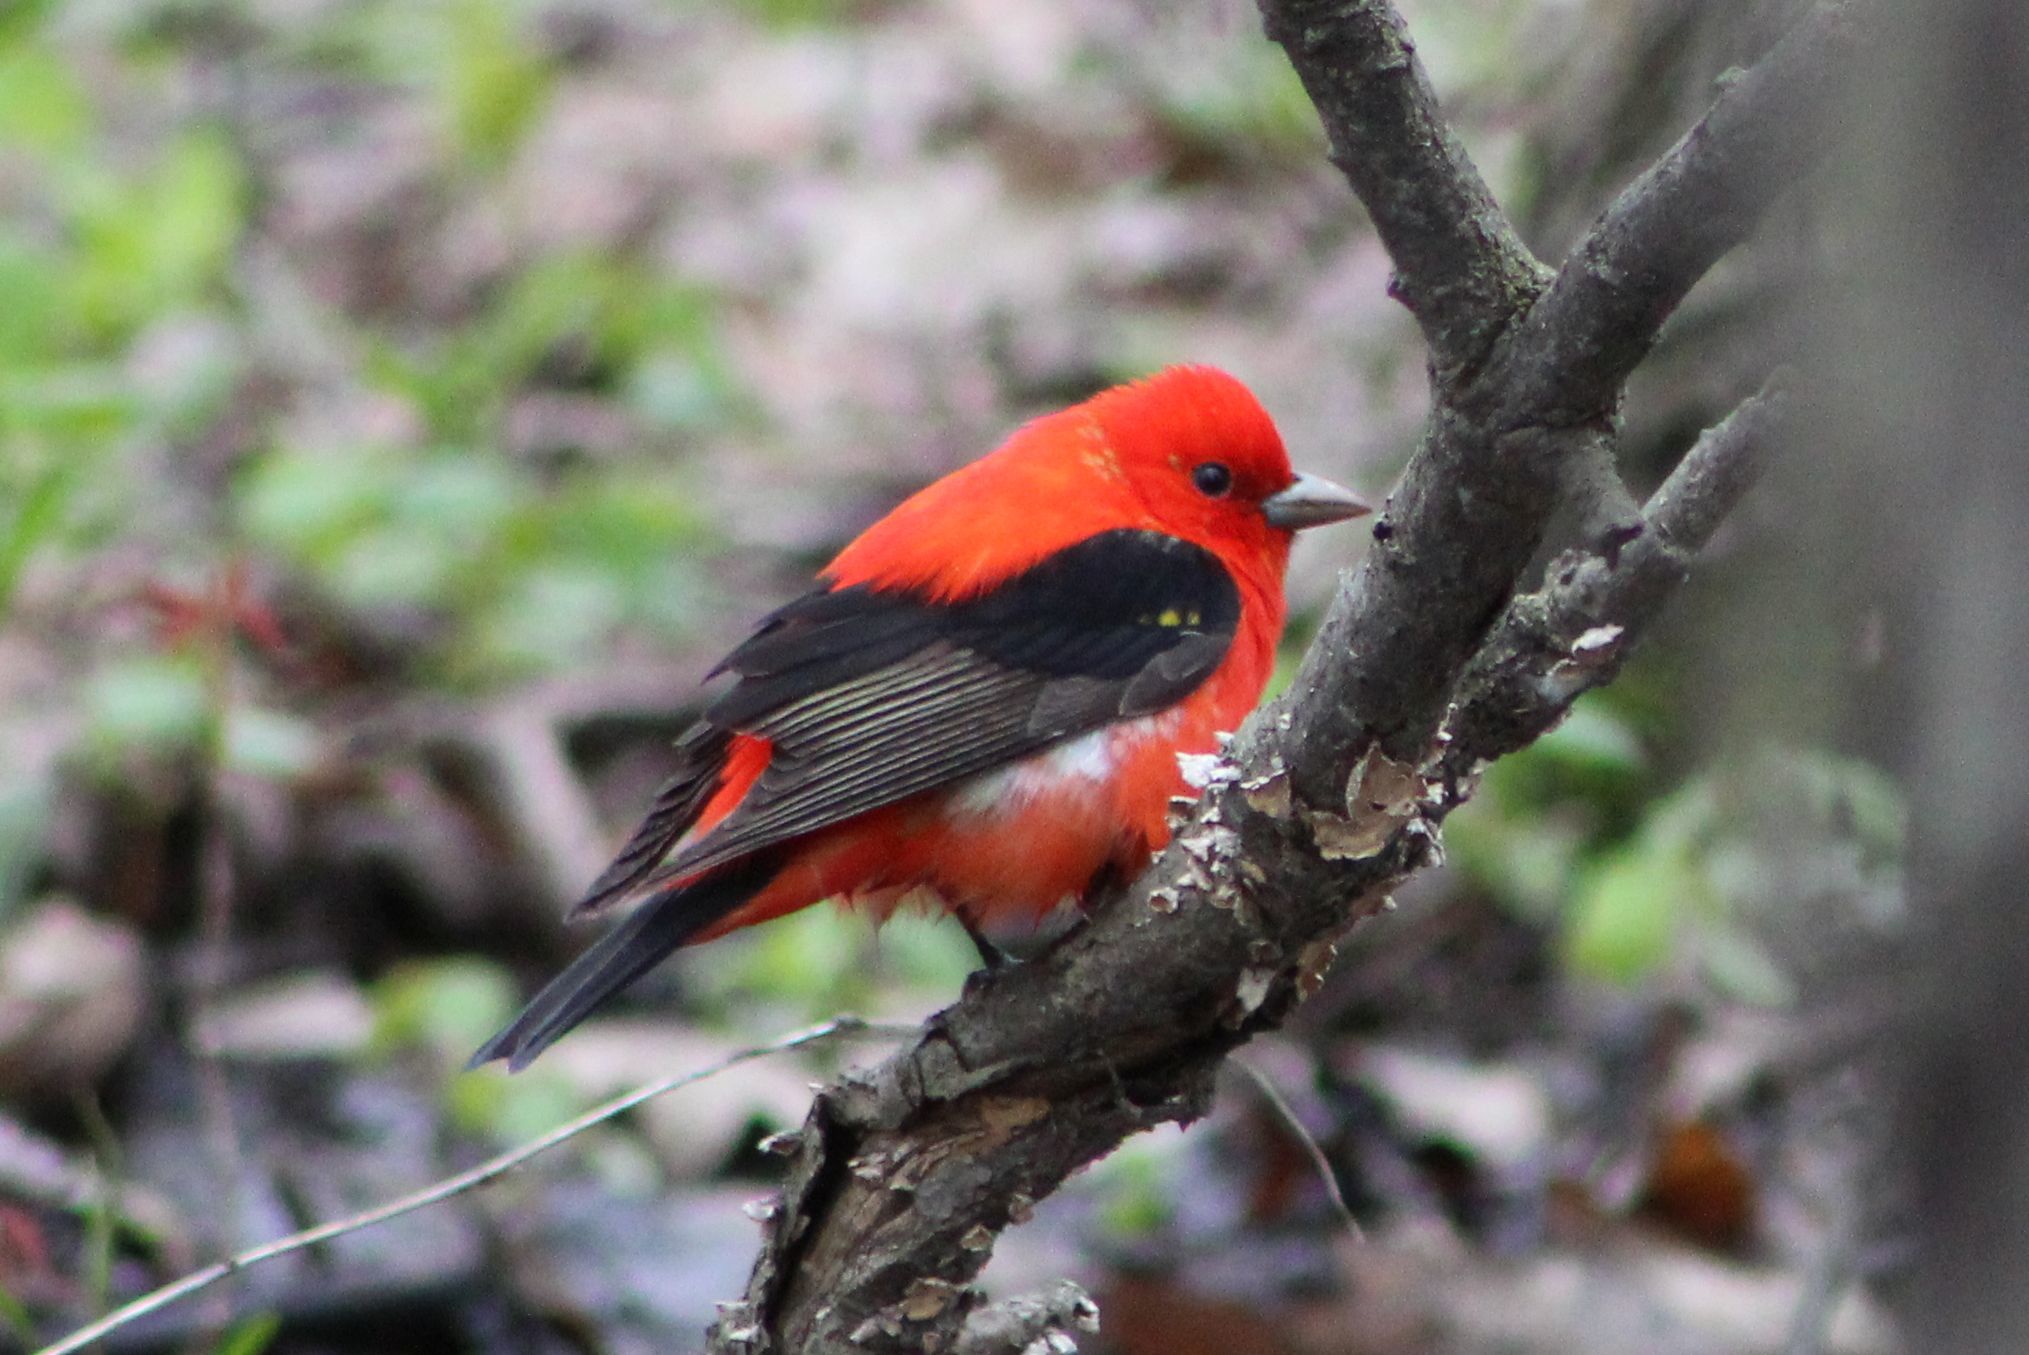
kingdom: Animalia
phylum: Chordata
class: Aves
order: Passeriformes
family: Cardinalidae
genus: Piranga
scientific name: Piranga olivacea
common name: Scarlet tanager
